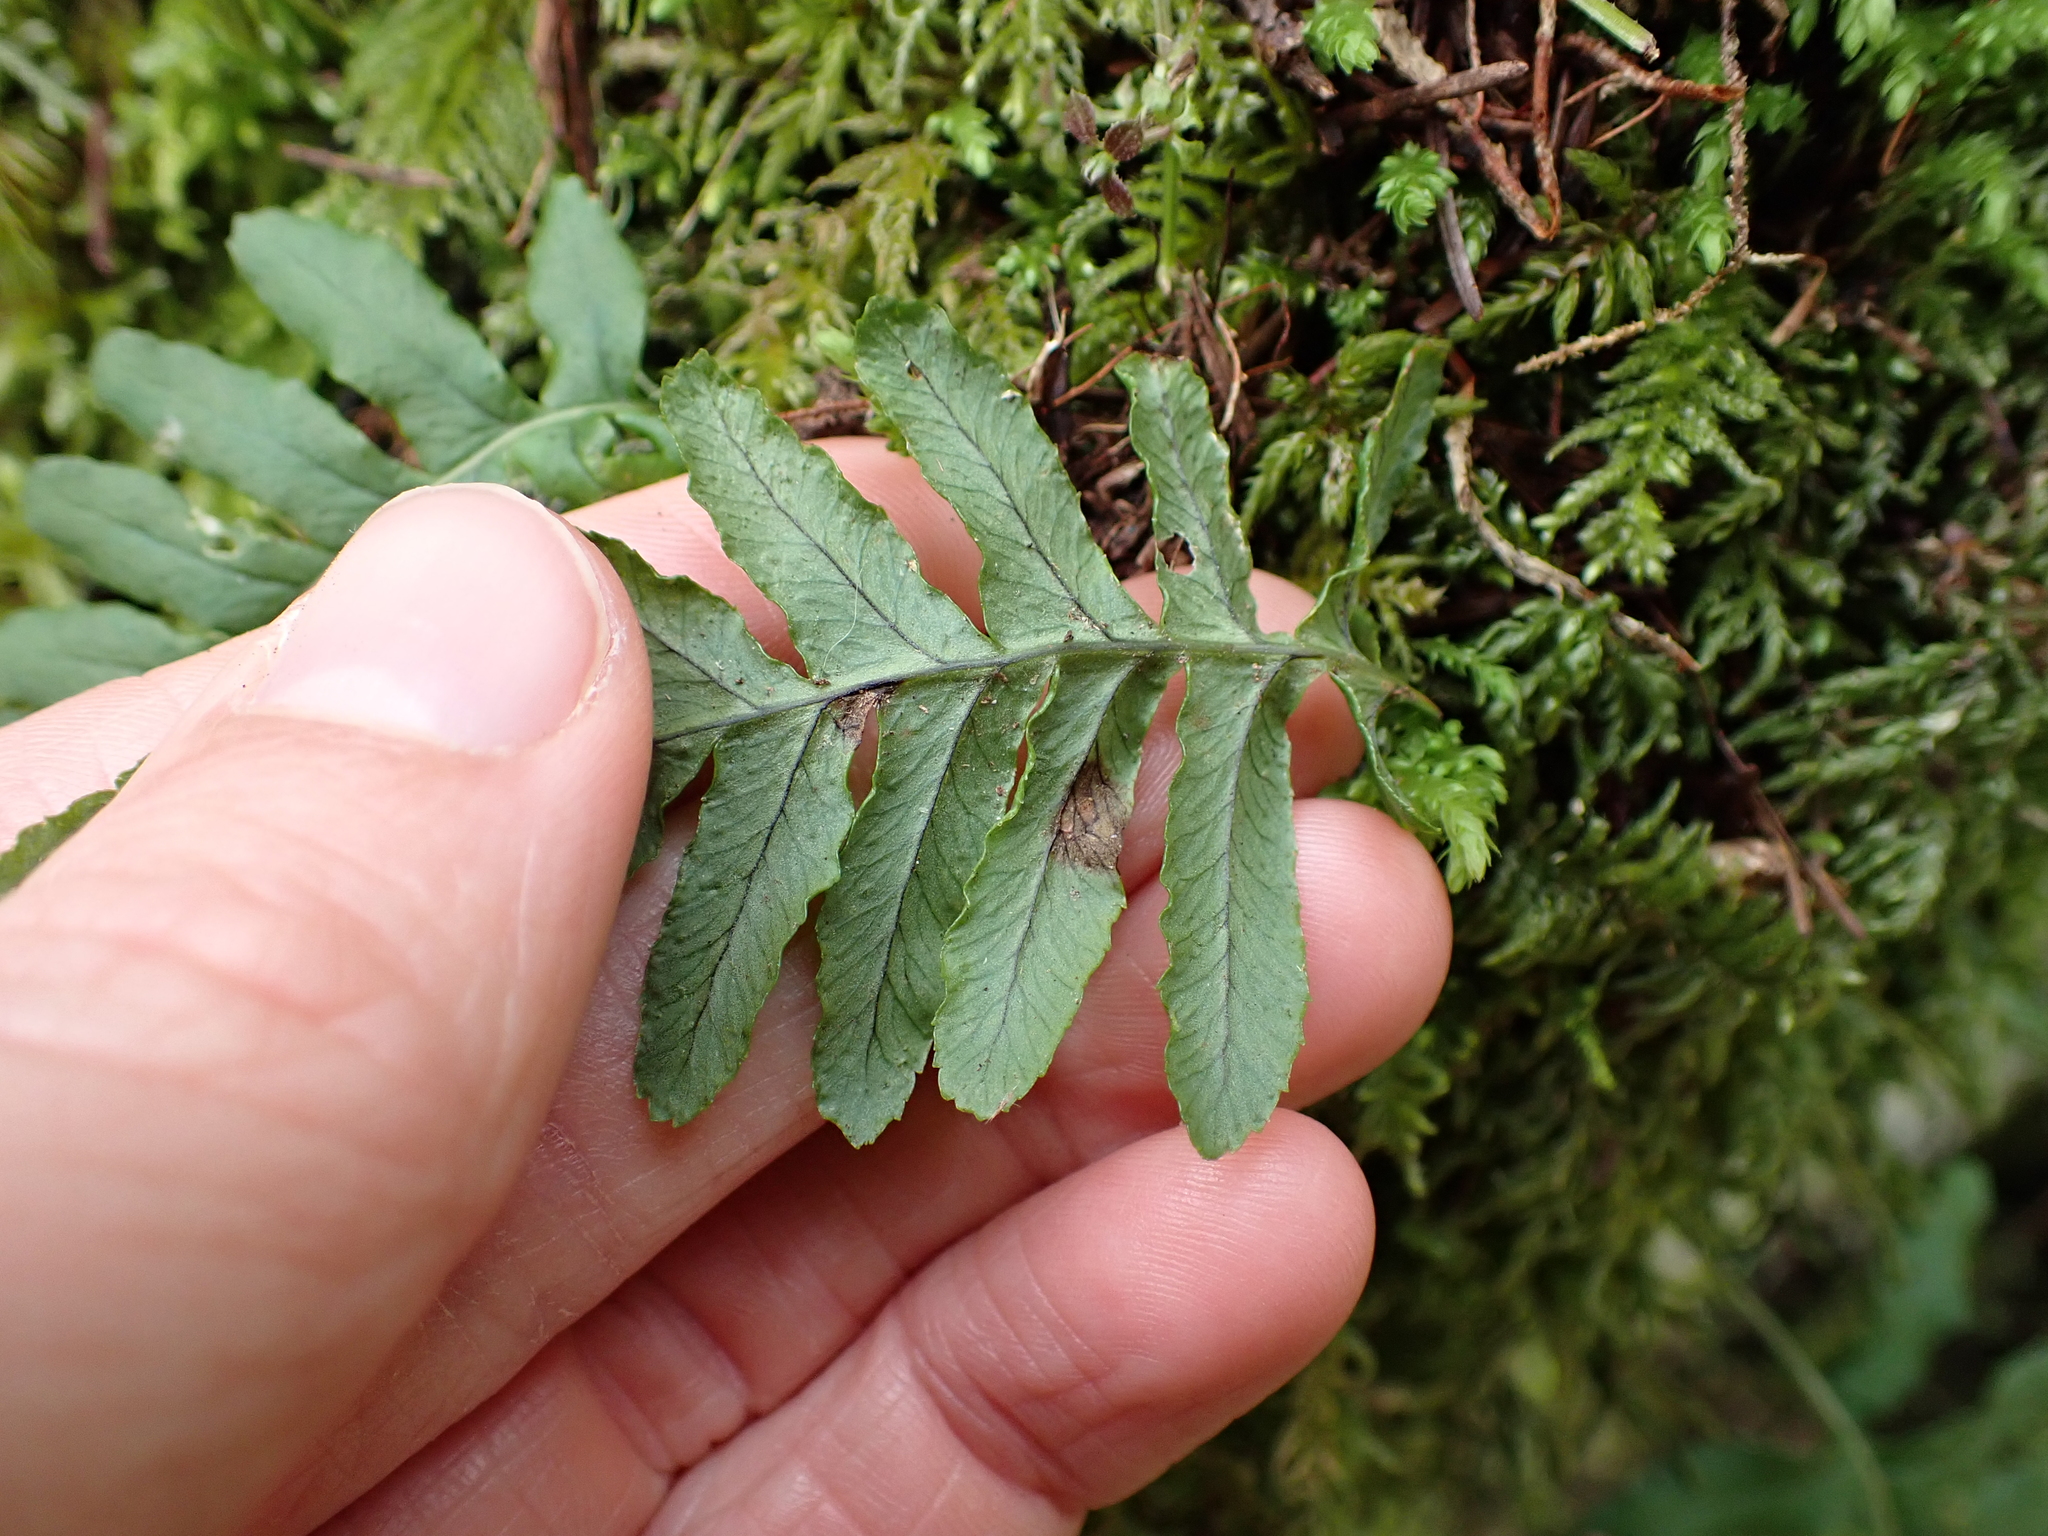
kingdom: Plantae
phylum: Tracheophyta
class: Polypodiopsida
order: Polypodiales
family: Polypodiaceae
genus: Polypodium
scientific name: Polypodium glycyrrhiza
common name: Licorice fern
